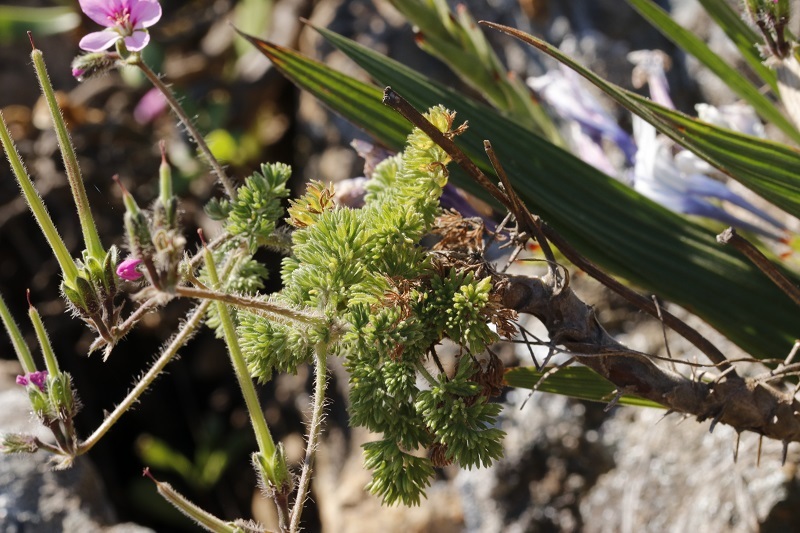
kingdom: Plantae
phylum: Tracheophyta
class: Magnoliopsida
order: Geraniales
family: Geraniaceae
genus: Pelargonium
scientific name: Pelargonium hirtum
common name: Fine-leaf pelargonium
